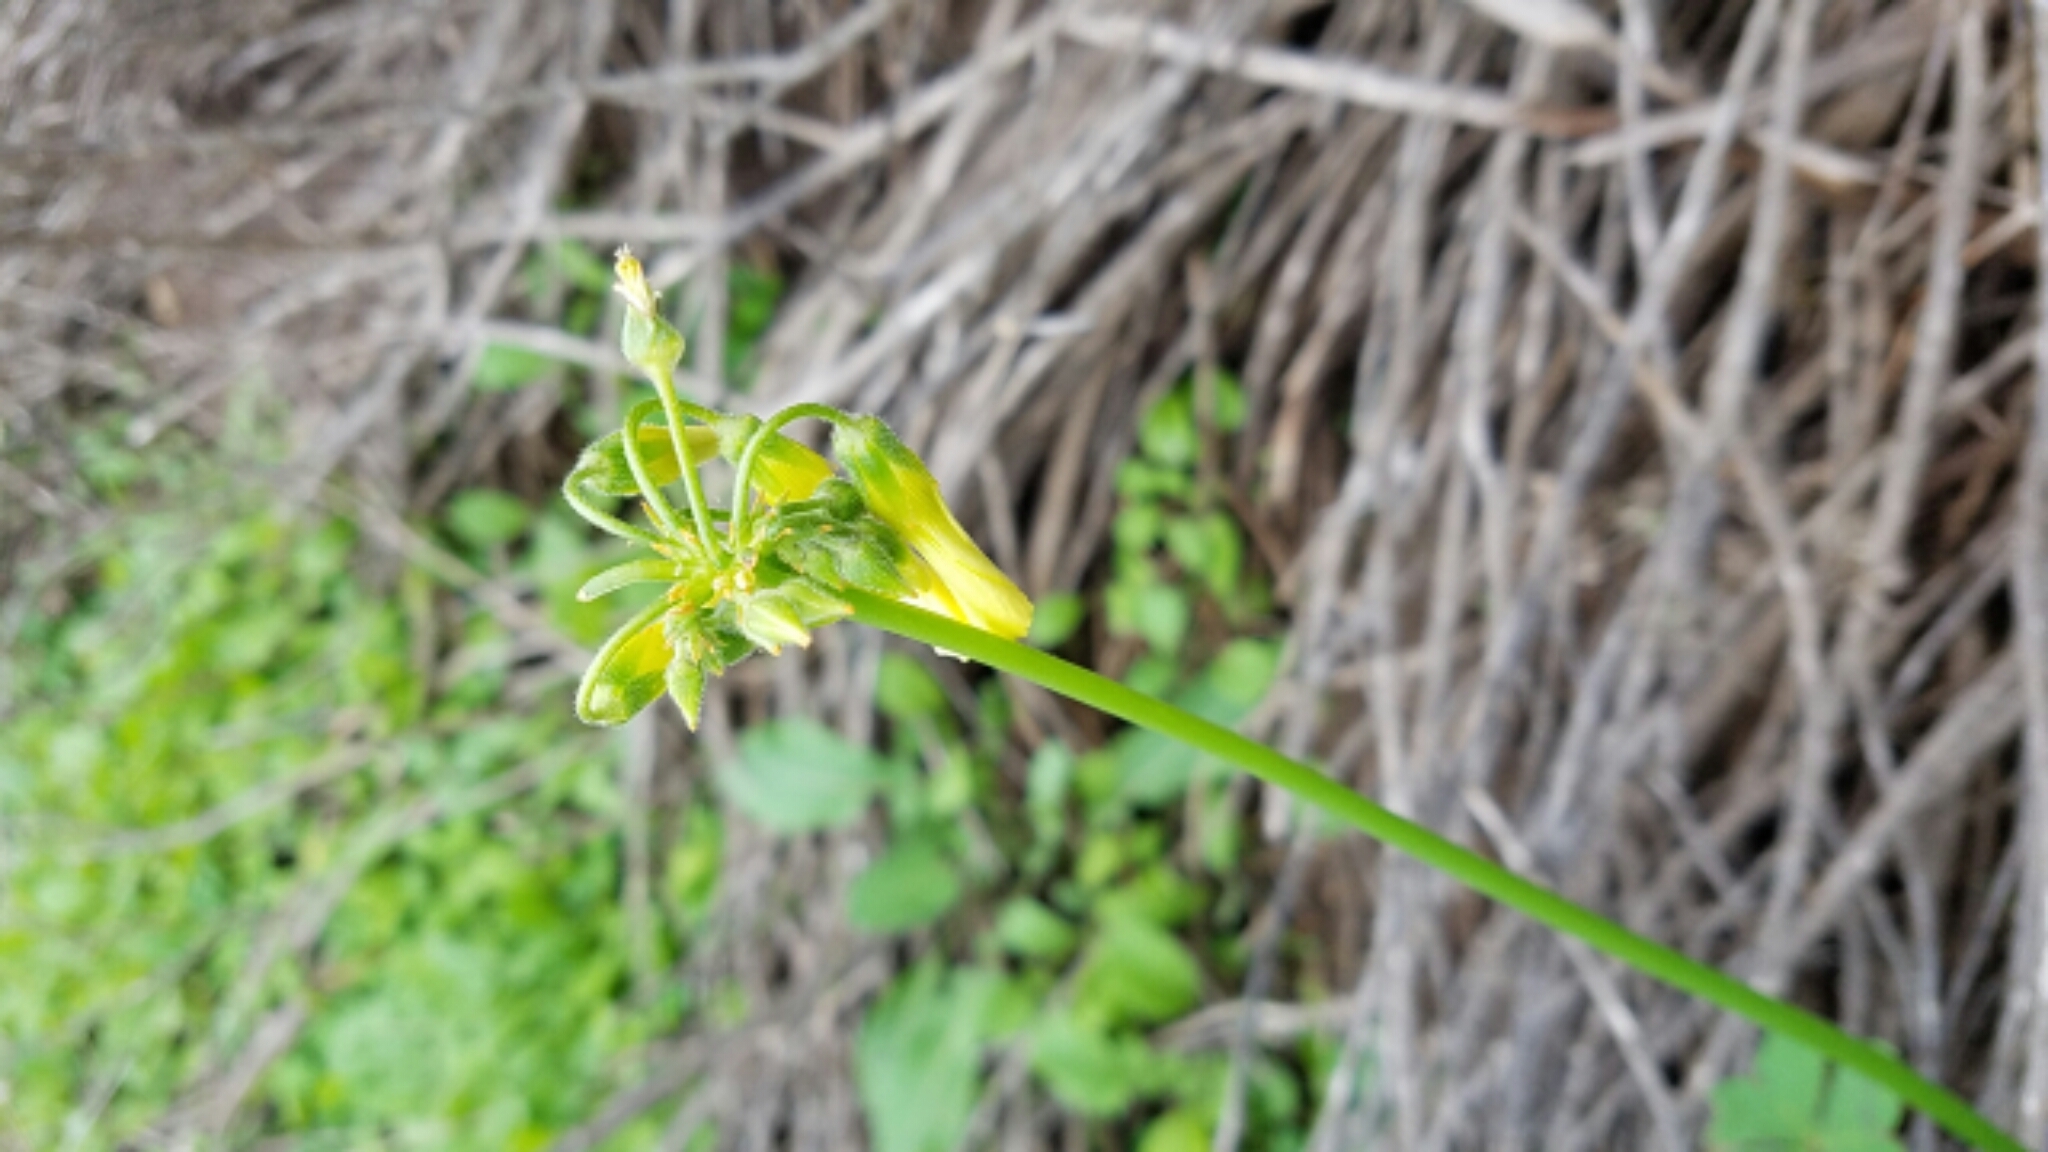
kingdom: Plantae
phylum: Tracheophyta
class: Magnoliopsida
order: Oxalidales
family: Oxalidaceae
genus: Oxalis
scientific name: Oxalis pes-caprae
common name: Bermuda-buttercup
